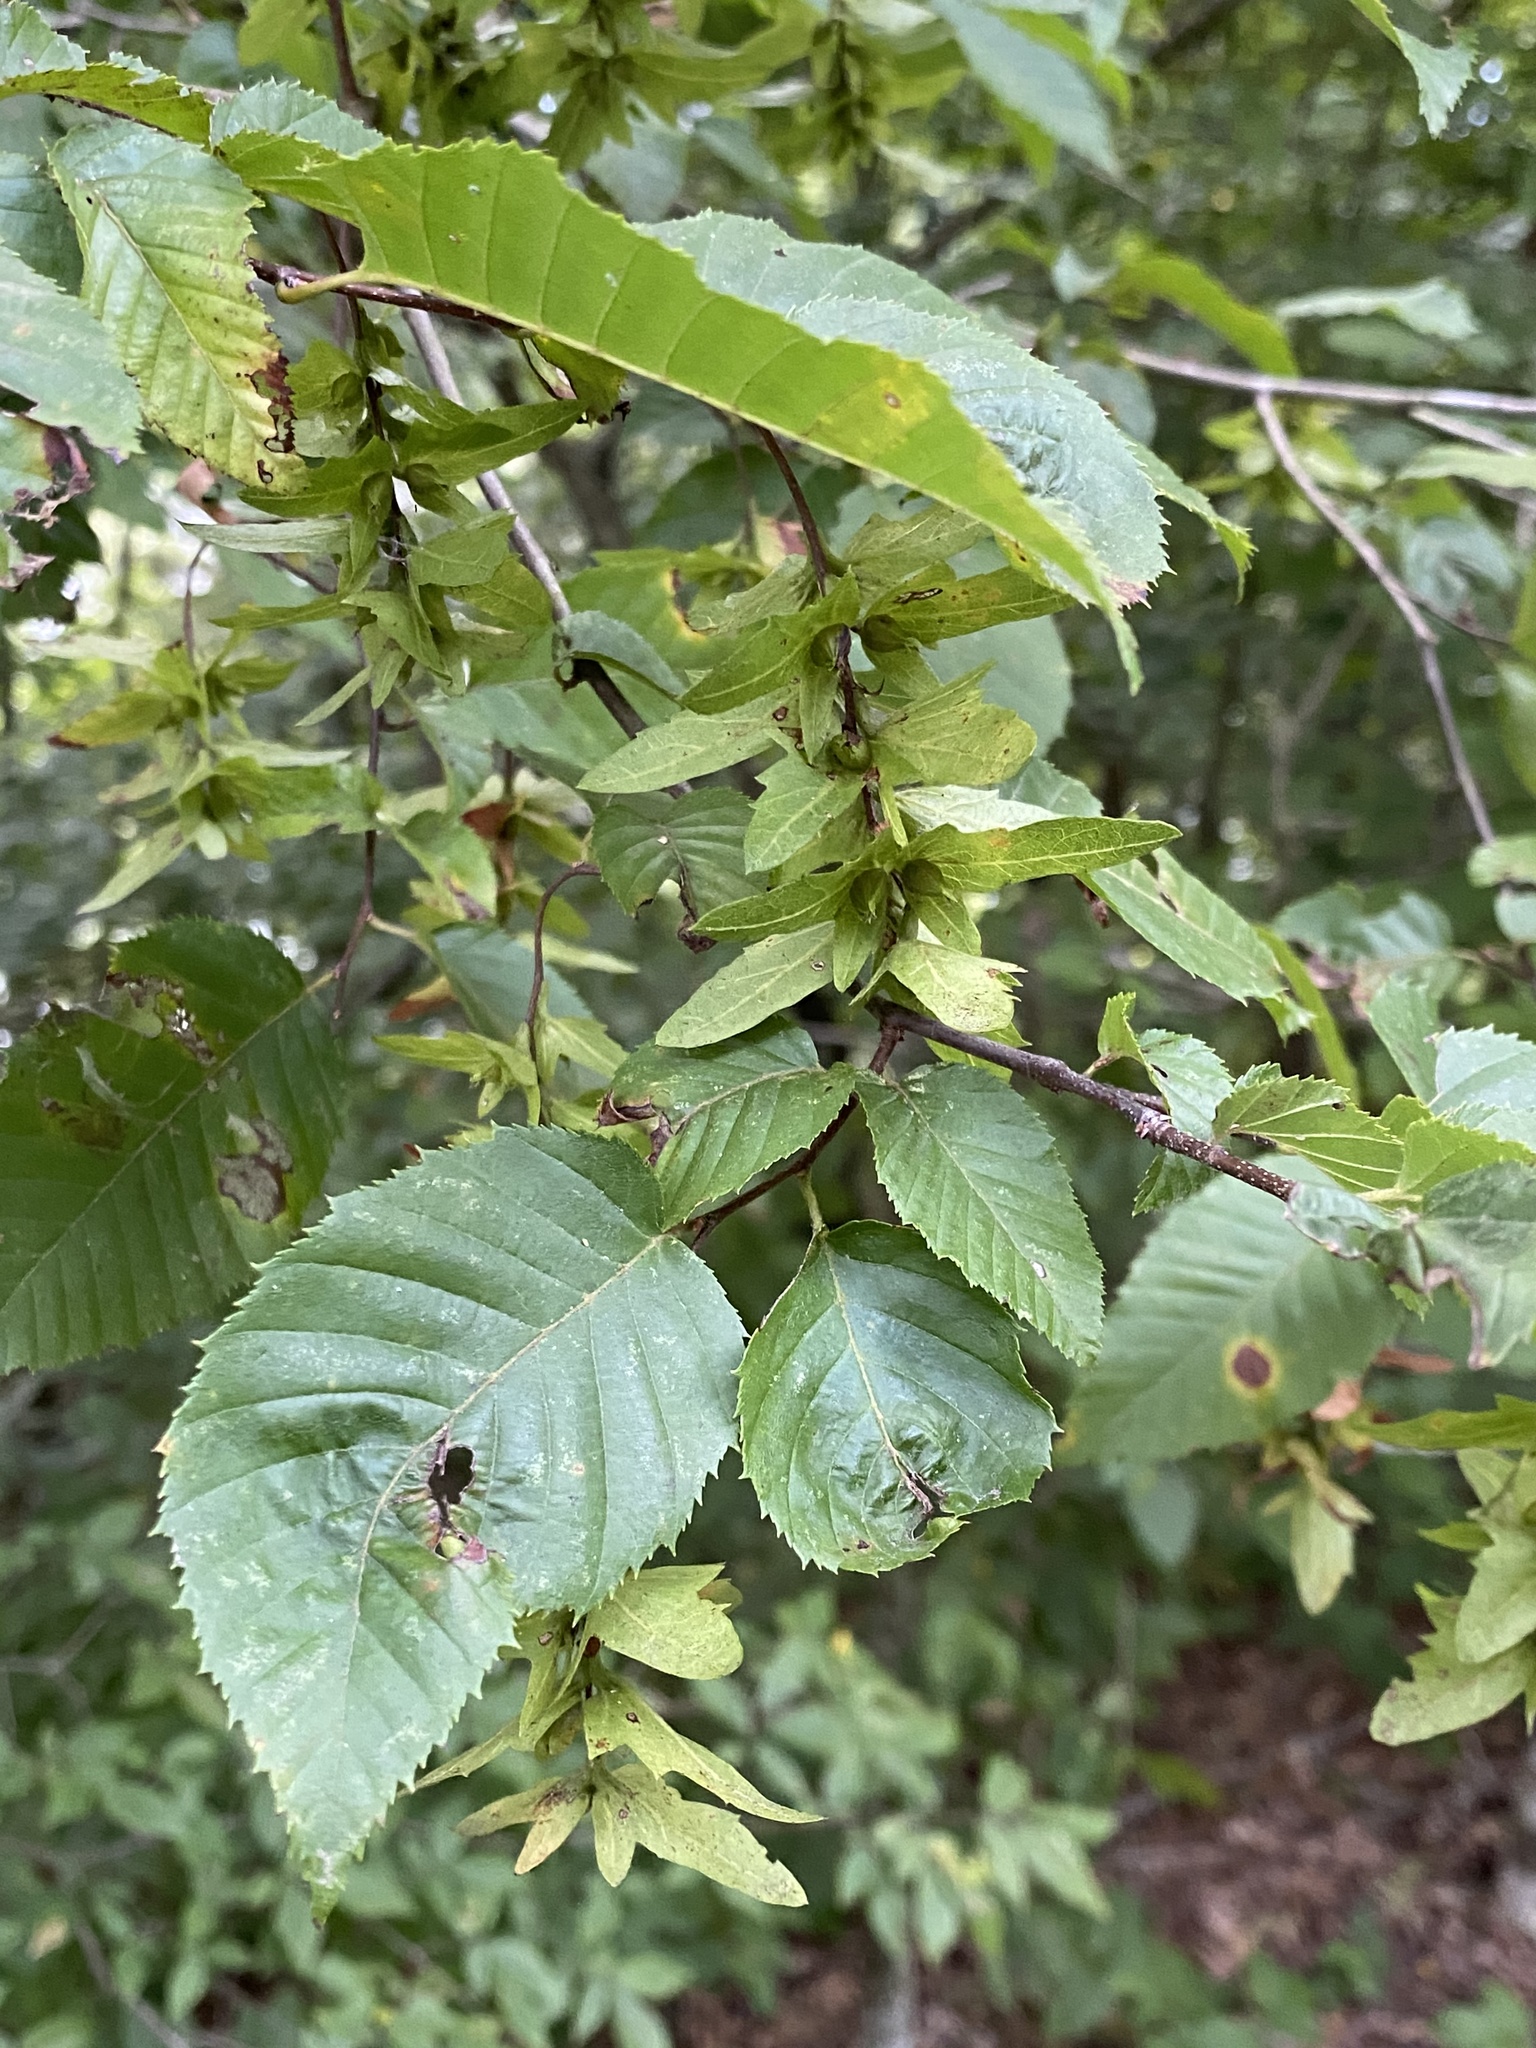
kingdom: Plantae
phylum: Tracheophyta
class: Magnoliopsida
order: Fagales
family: Betulaceae
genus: Carpinus
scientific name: Carpinus caroliniana
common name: American hornbeam
